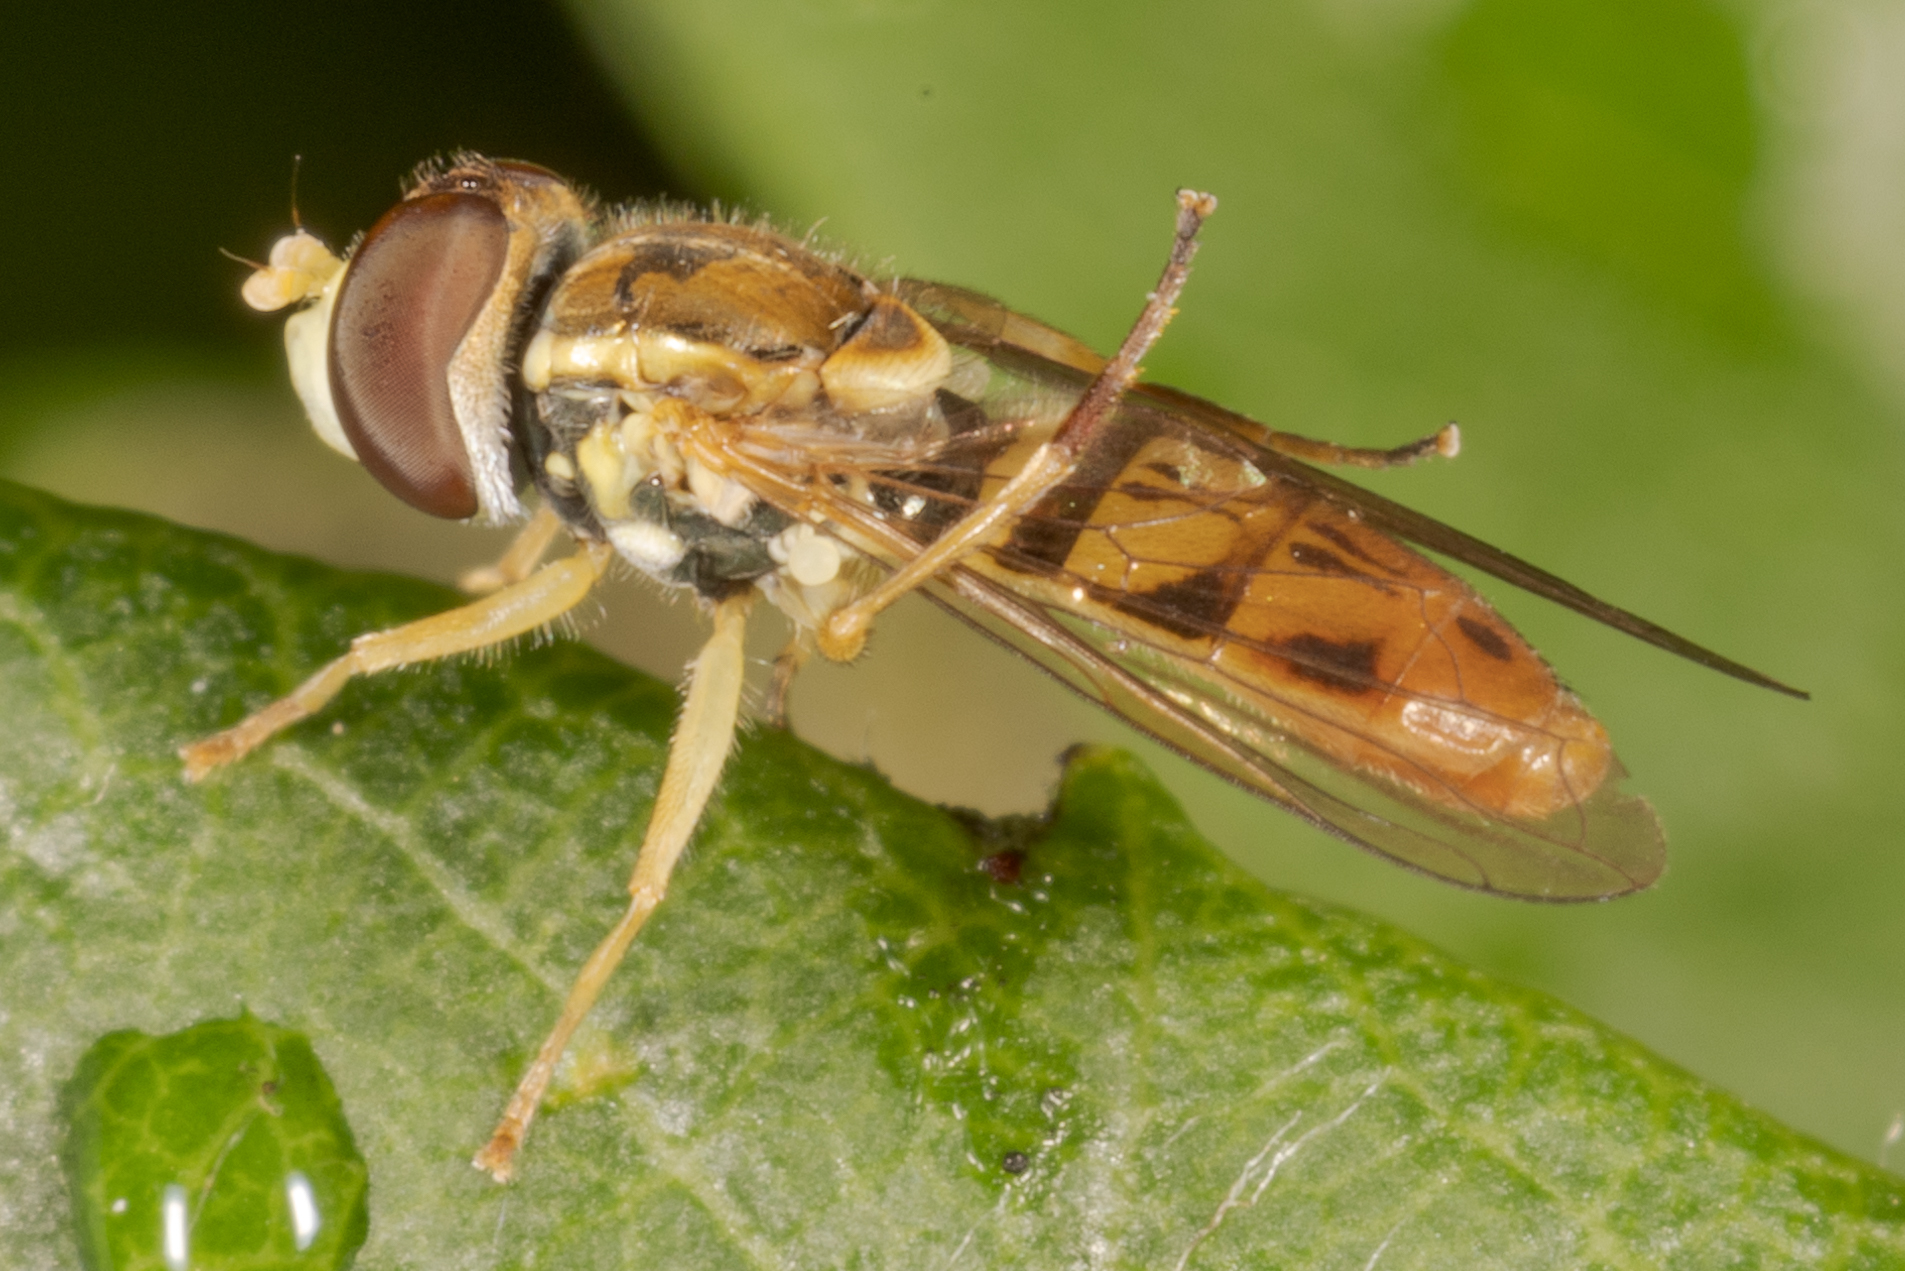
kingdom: Animalia
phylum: Arthropoda
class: Insecta
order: Diptera
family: Syrphidae
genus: Toxomerus
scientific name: Toxomerus marginatus
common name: Syrphid fly
